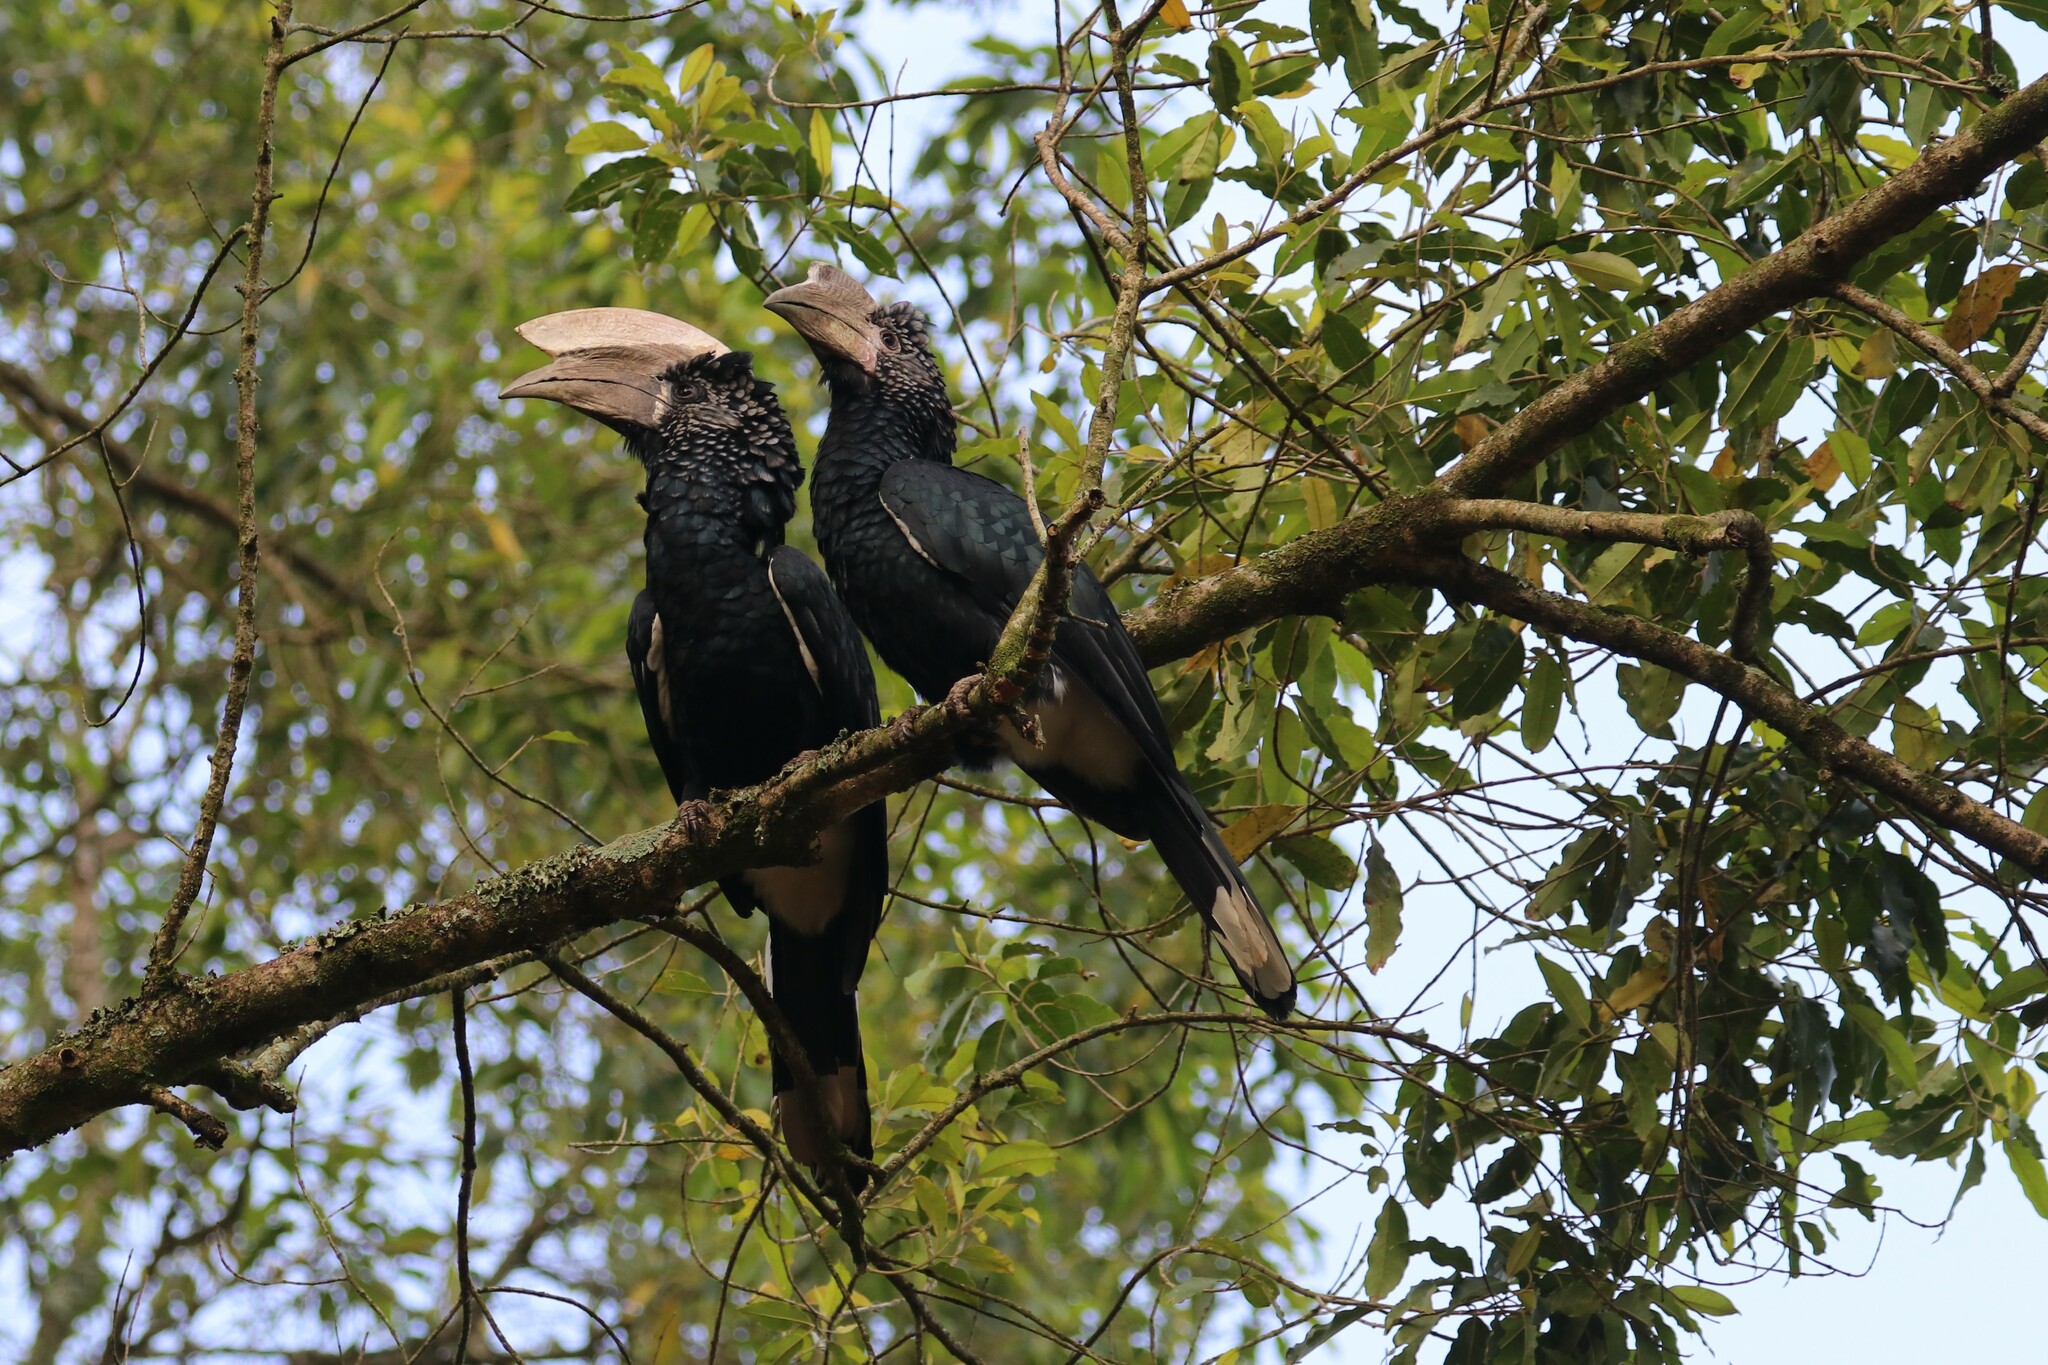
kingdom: Animalia
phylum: Chordata
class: Aves
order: Bucerotiformes
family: Bucerotidae
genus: Bycanistes
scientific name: Bycanistes brevis
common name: Silvery-cheeked hornbill
